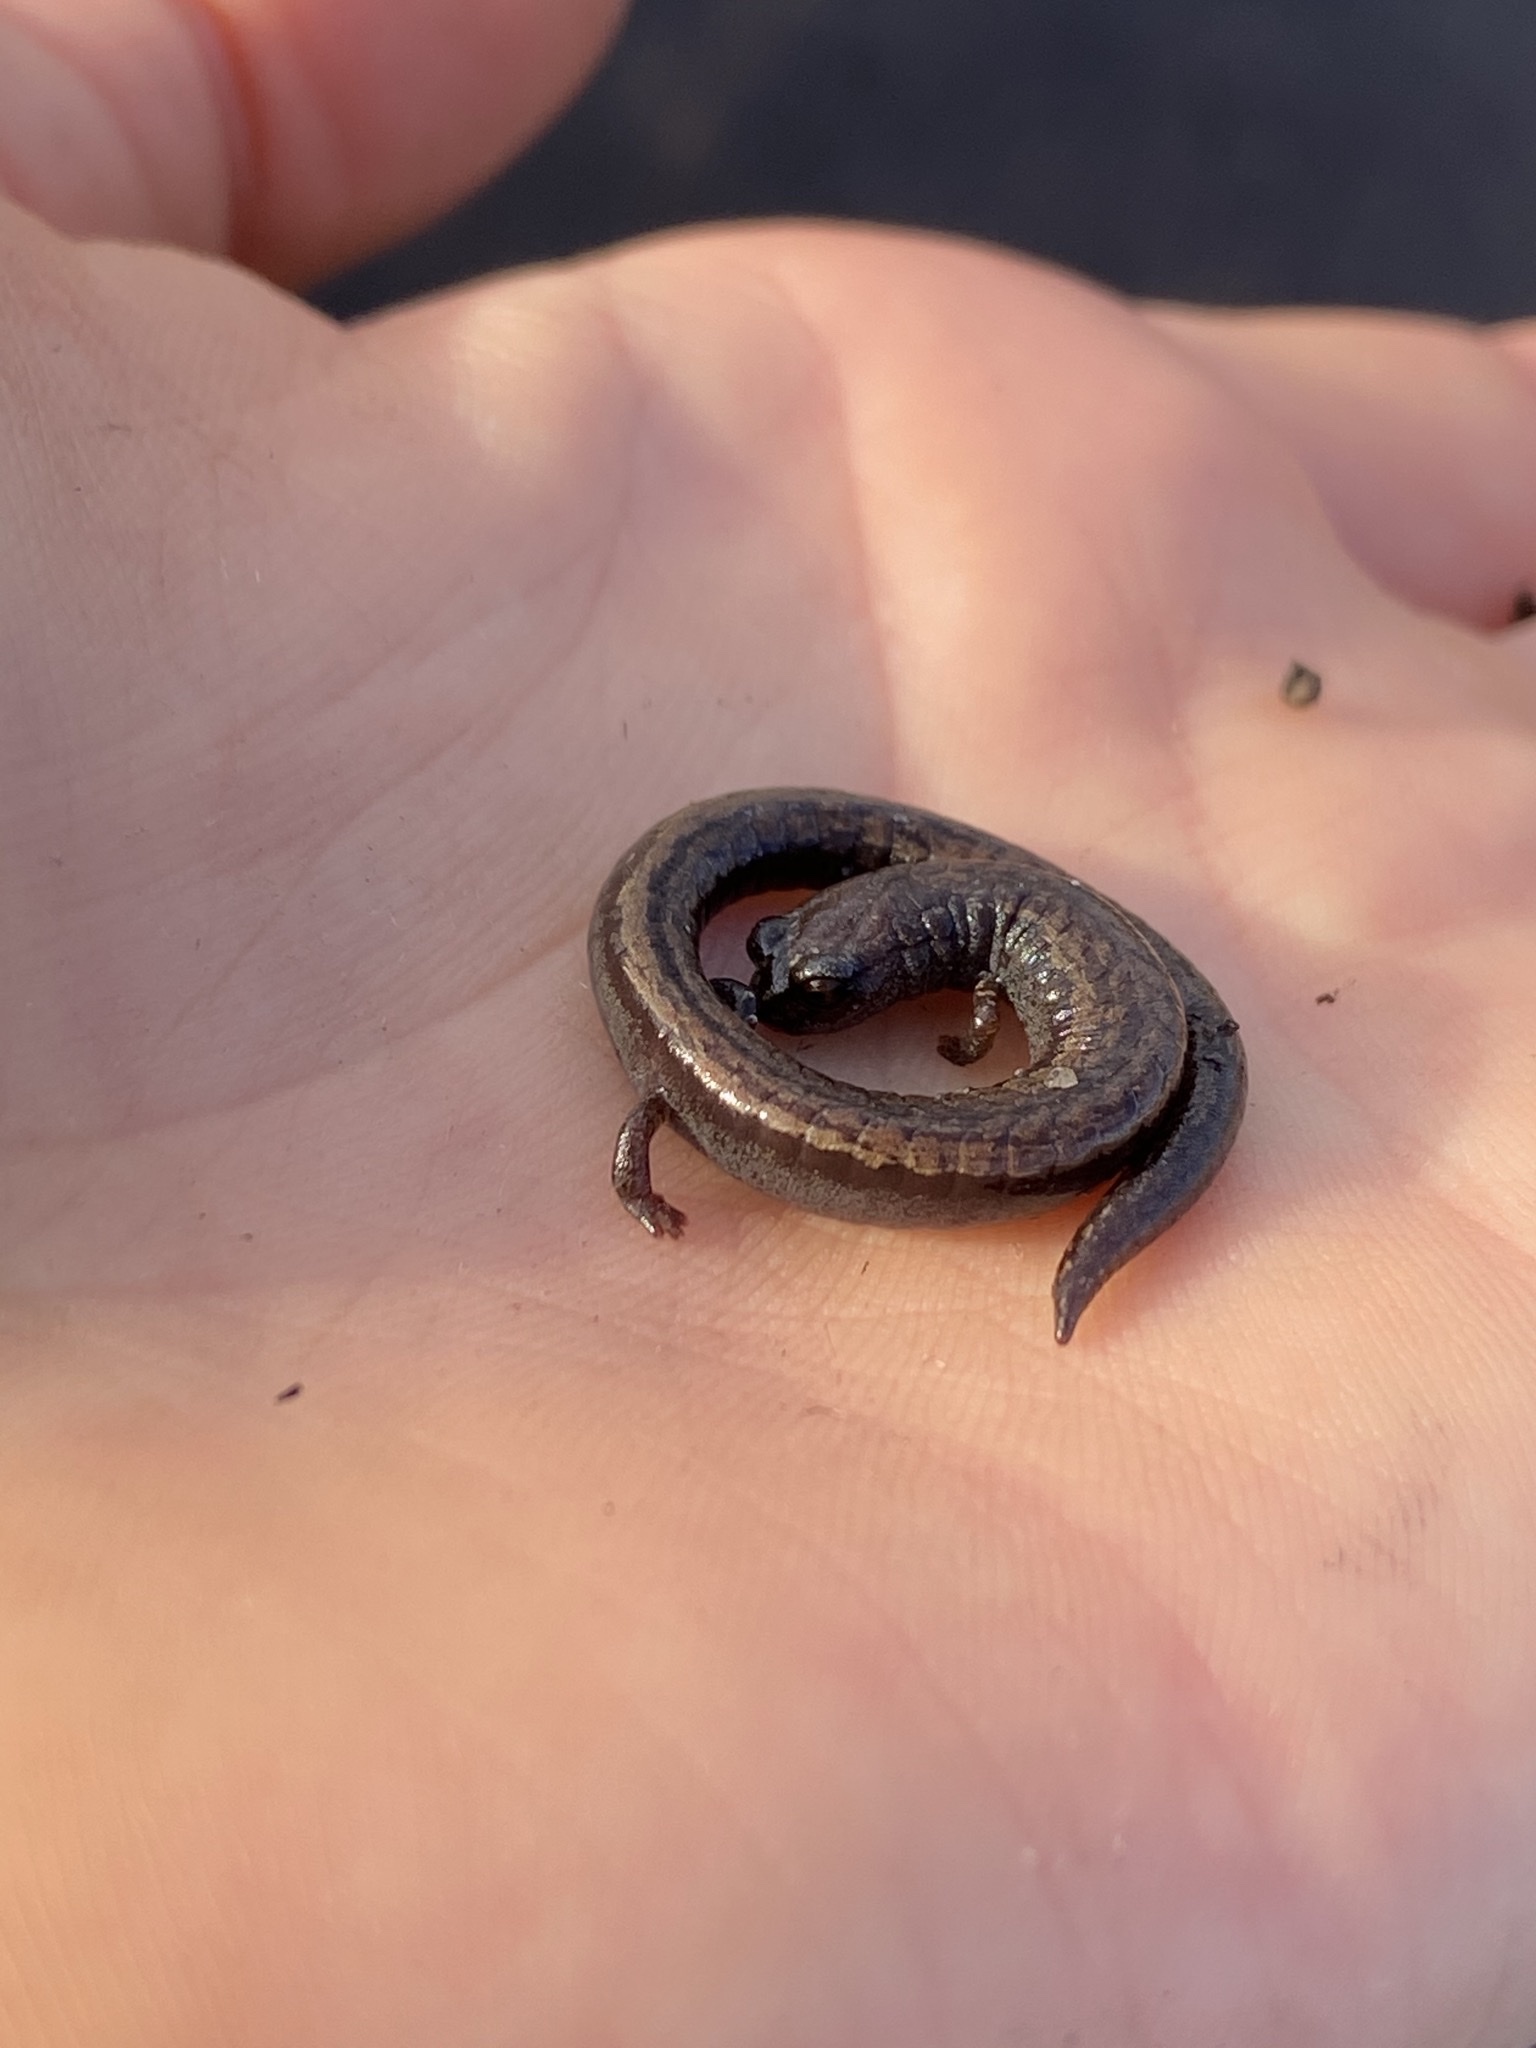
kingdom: Animalia
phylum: Chordata
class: Amphibia
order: Caudata
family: Plethodontidae
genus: Batrachoseps
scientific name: Batrachoseps attenuatus
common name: California slender salamander
